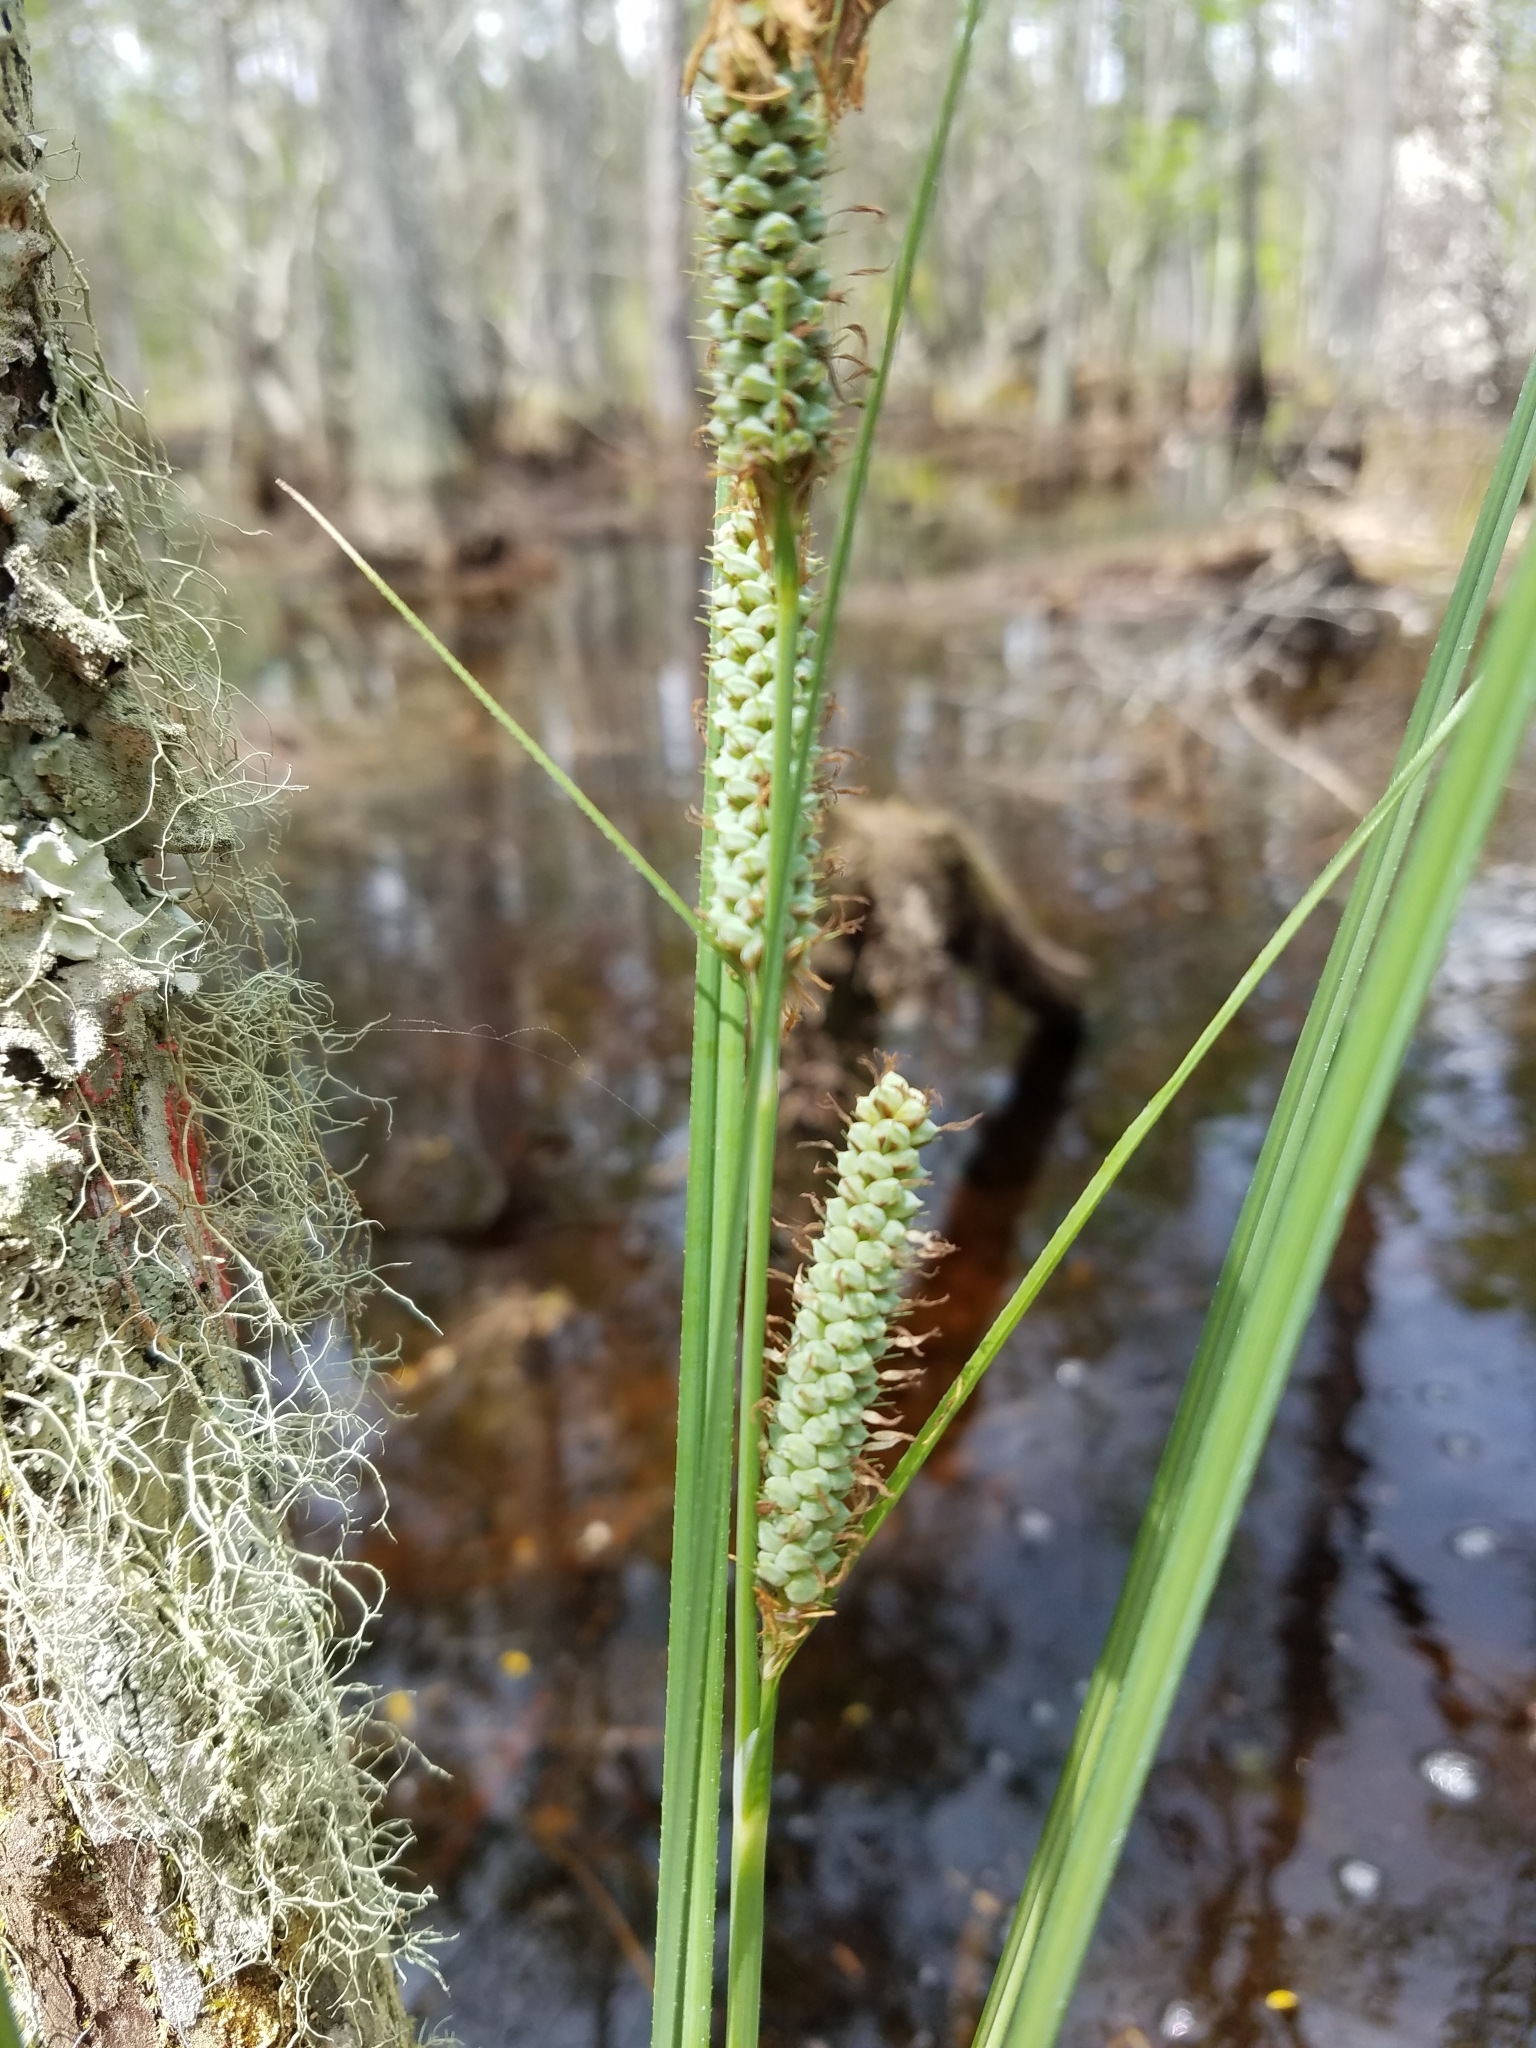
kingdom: Plantae
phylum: Tracheophyta
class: Liliopsida
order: Poales
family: Cyperaceae
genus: Carex
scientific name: Carex verrucosa
